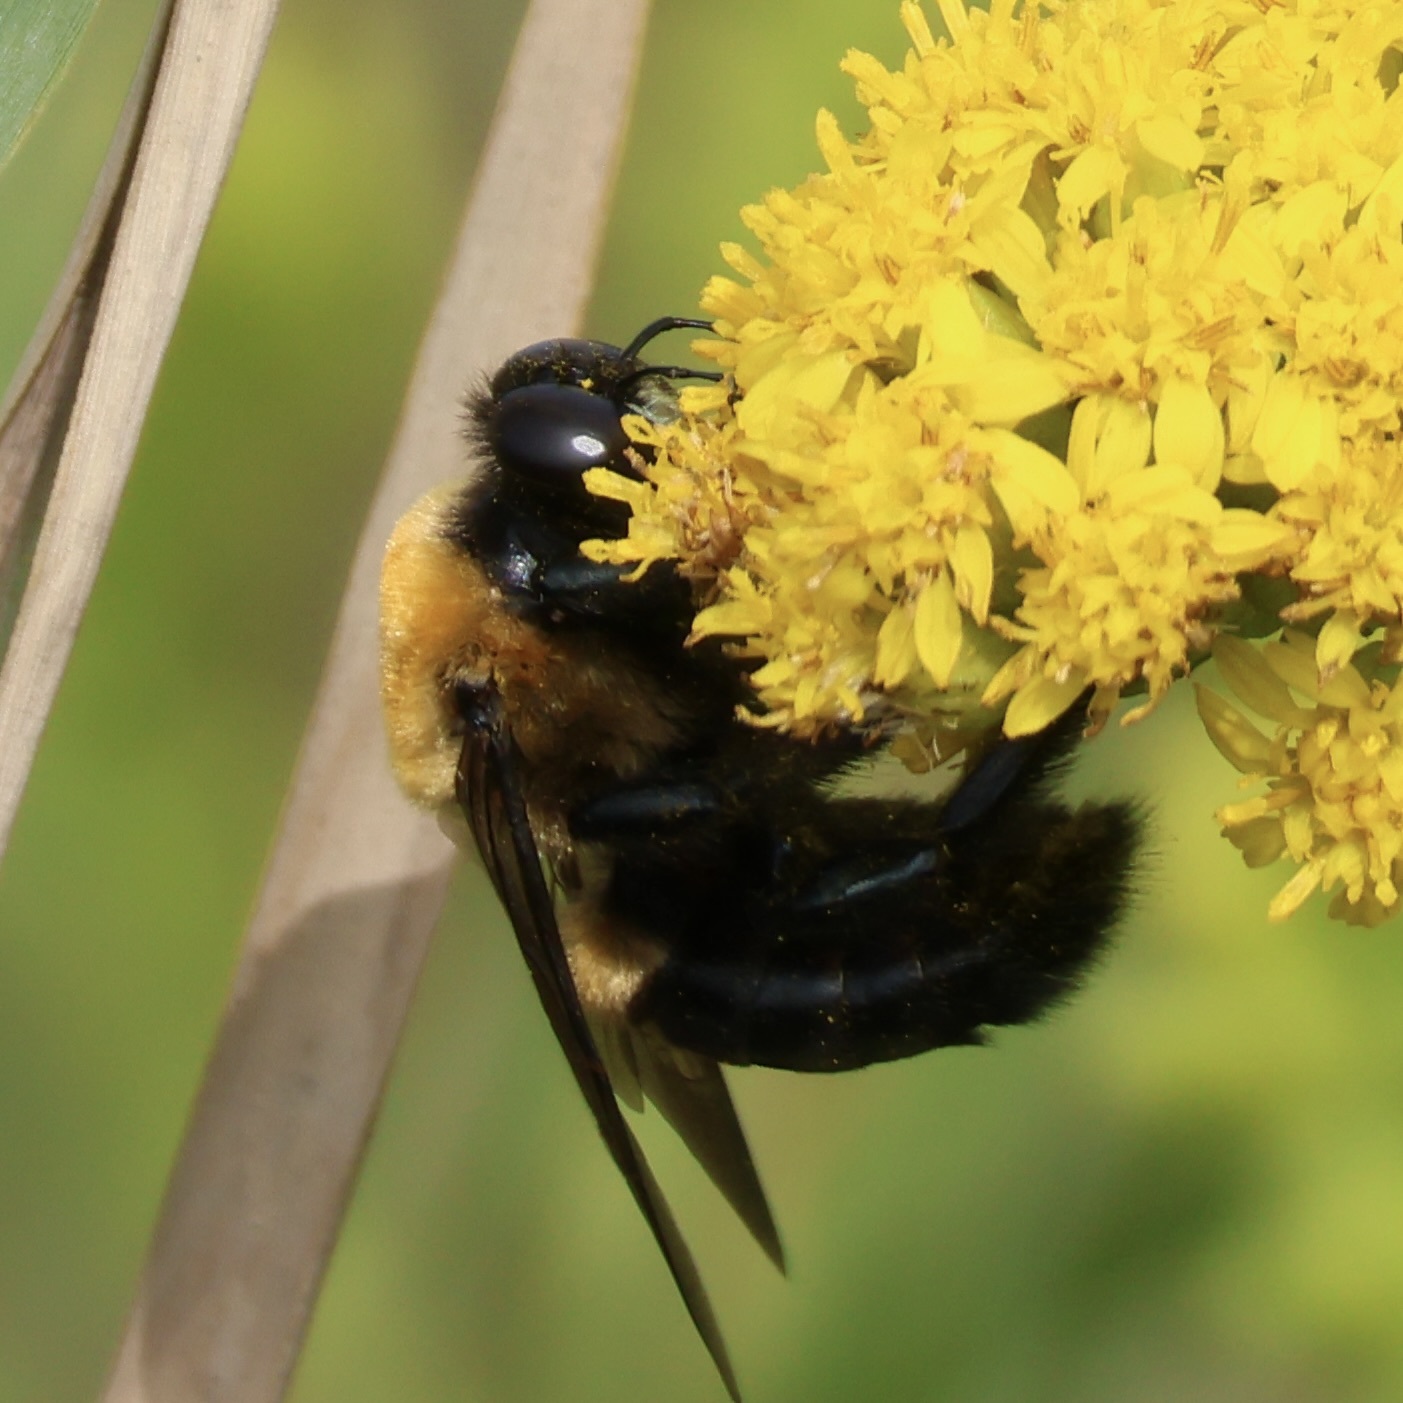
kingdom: Animalia
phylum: Arthropoda
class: Insecta
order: Hymenoptera
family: Apidae
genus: Xylocopa
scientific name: Xylocopa virginica
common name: Carpenter bee
